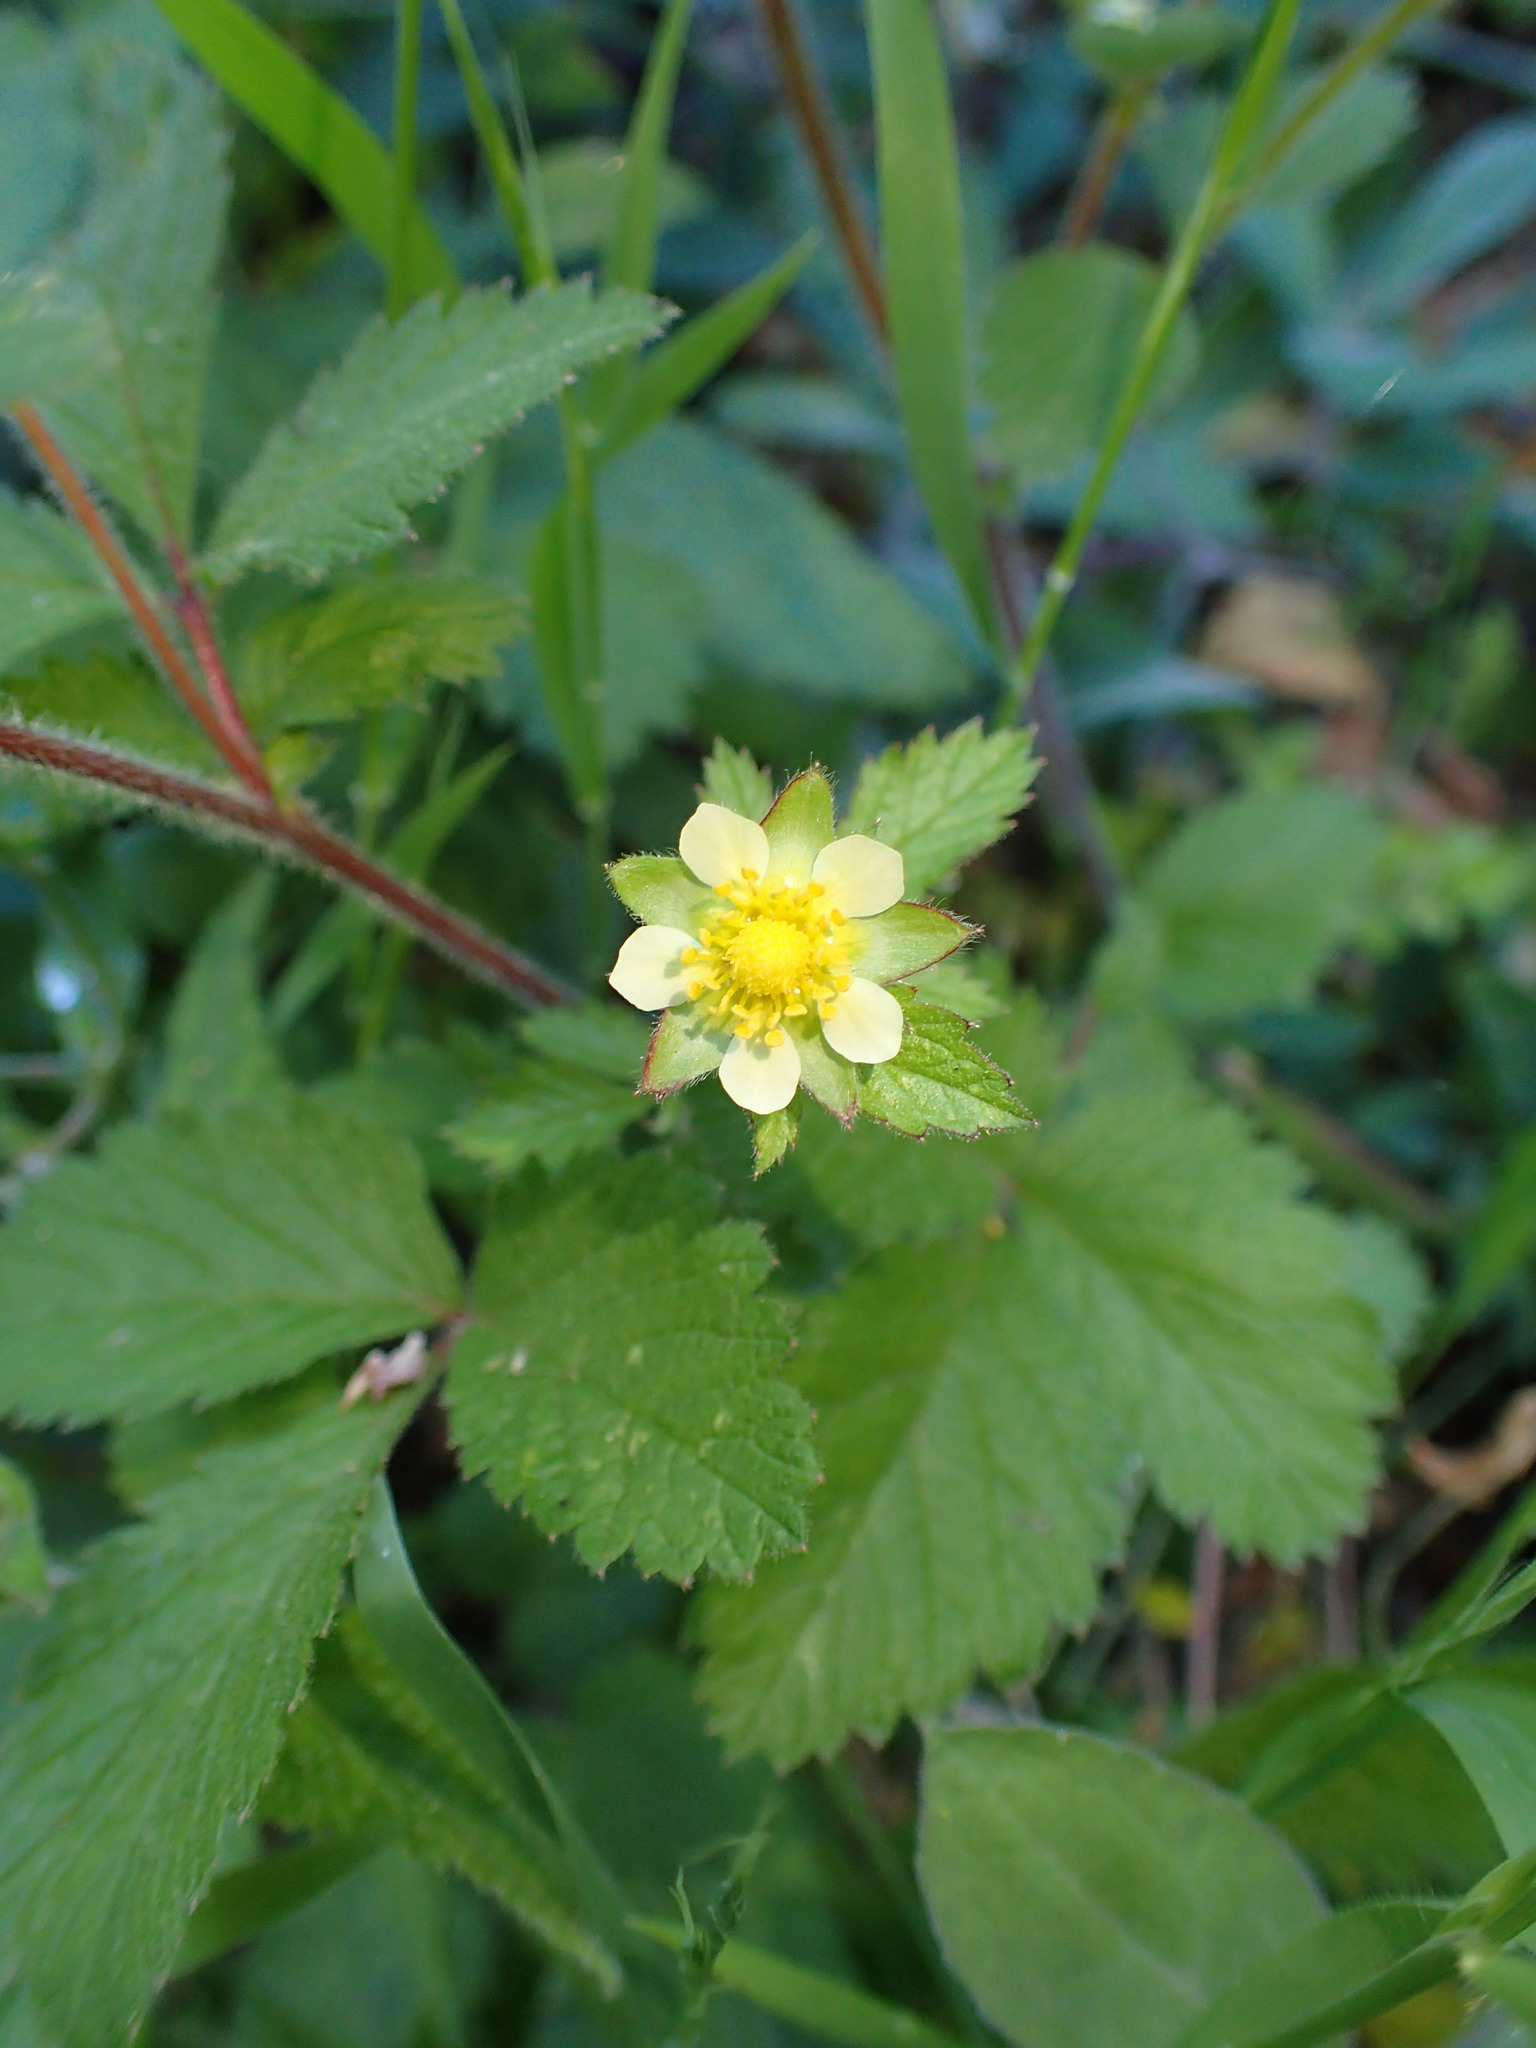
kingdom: Plantae
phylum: Tracheophyta
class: Magnoliopsida
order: Rosales
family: Rosaceae
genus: Drymocallis
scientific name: Drymocallis glandulosa
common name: Sticky cinquefoil
